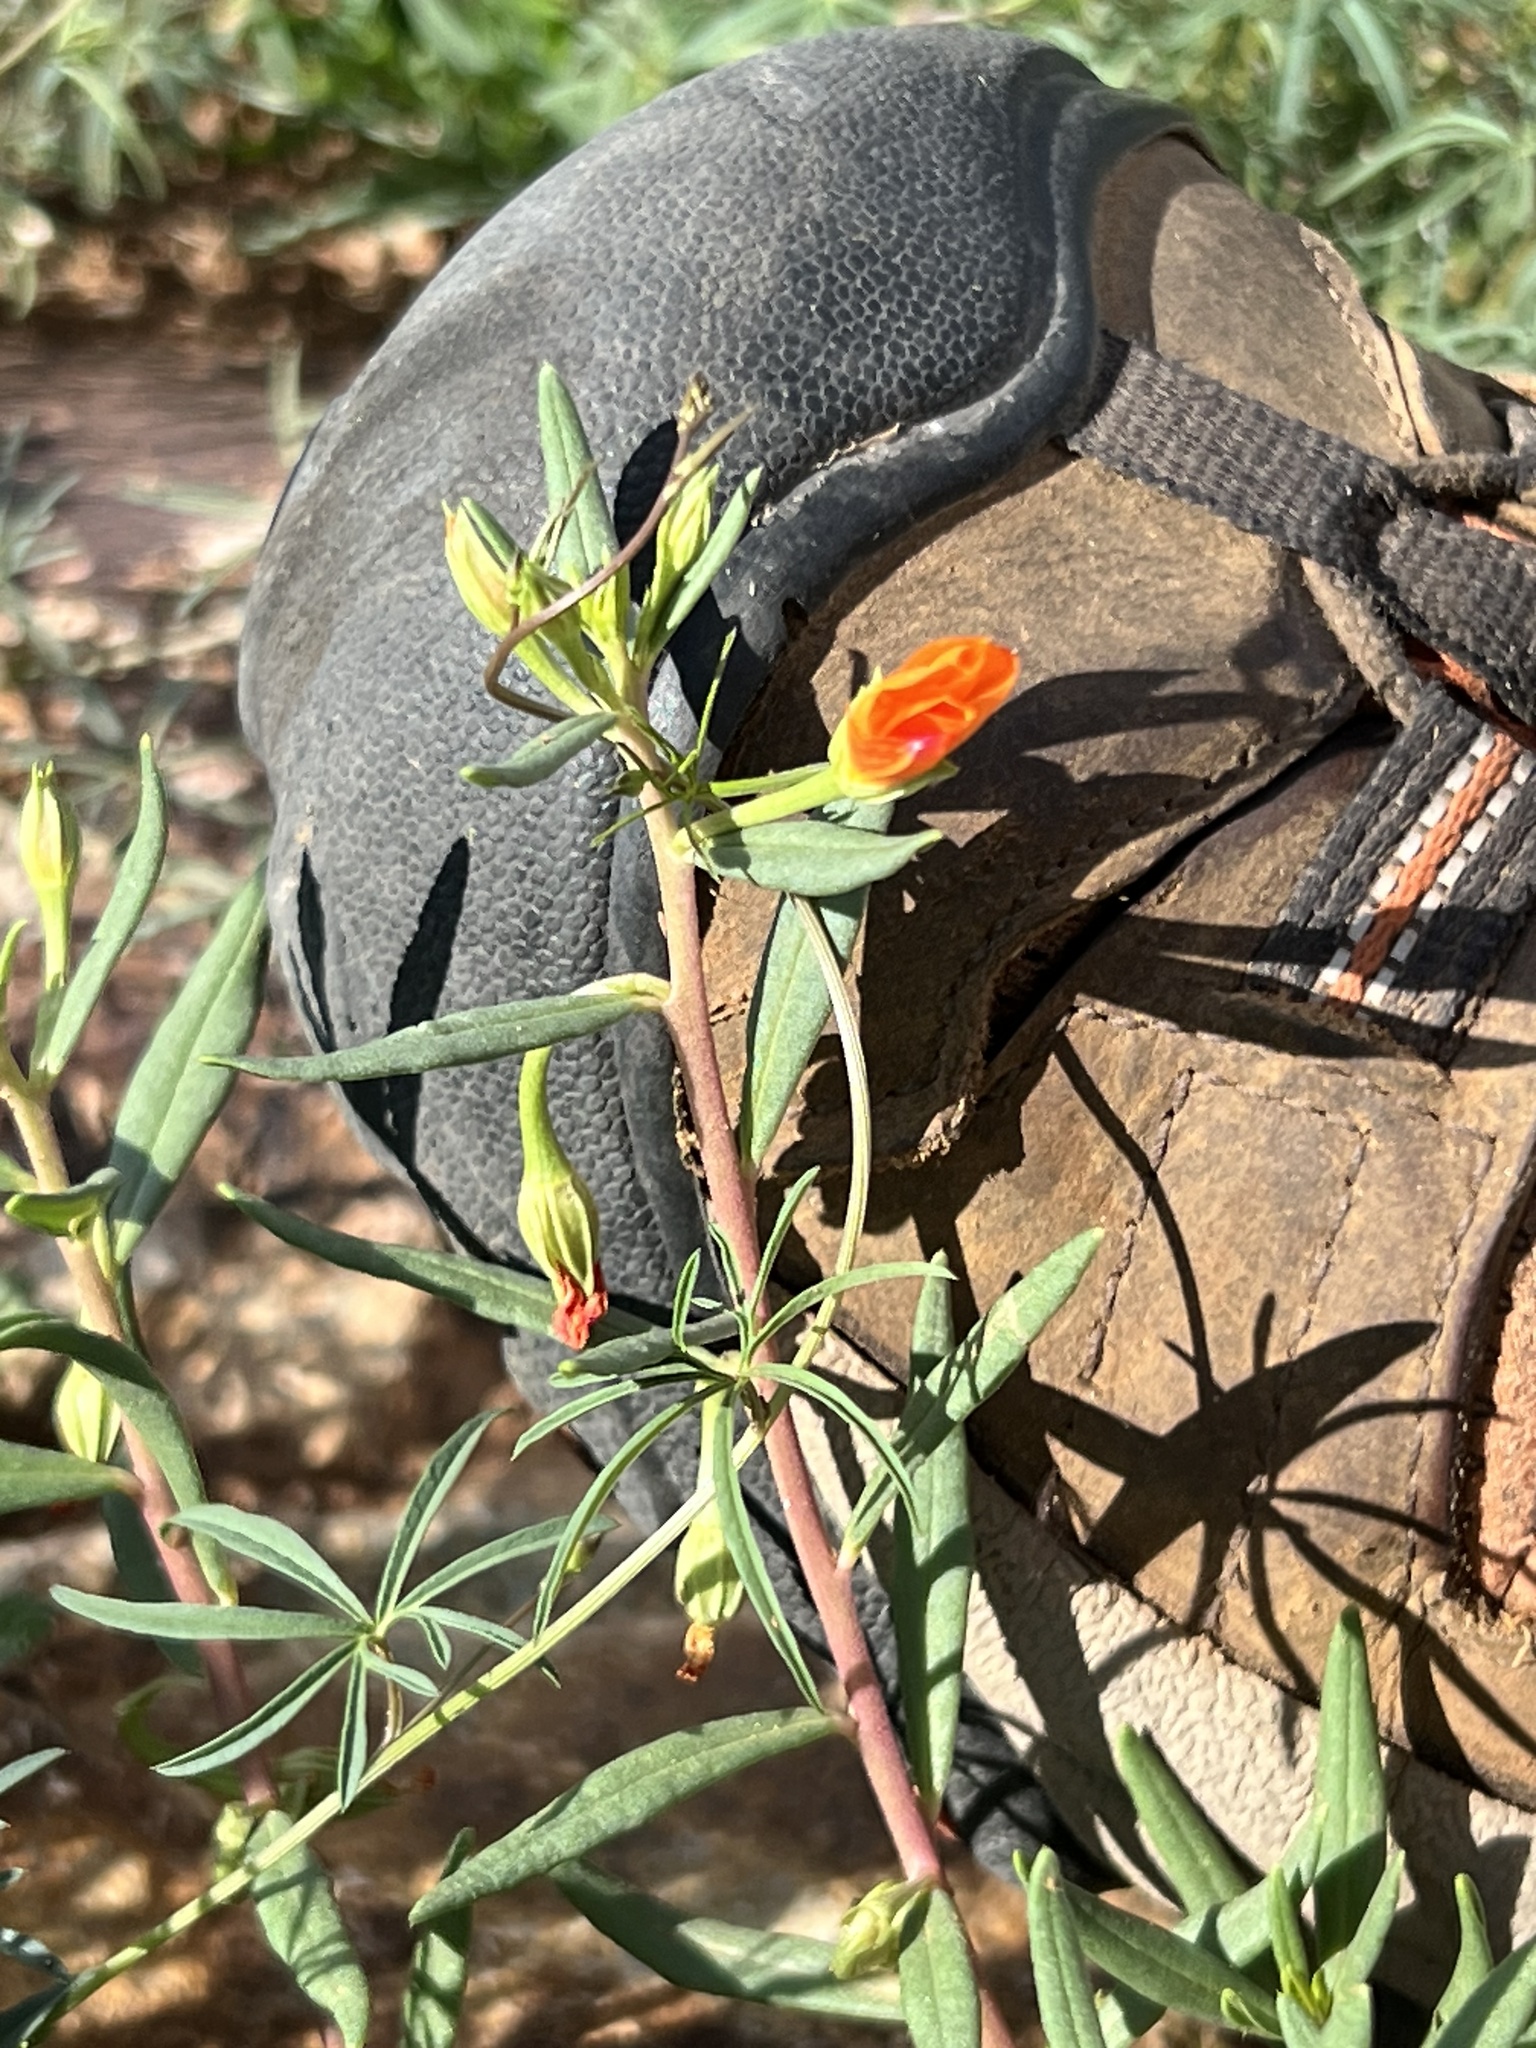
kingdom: Plantae
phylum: Tracheophyta
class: Magnoliopsida
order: Caryophyllales
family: Montiaceae
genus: Phemeranthus
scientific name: Phemeranthus aurantiacus
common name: Orange fameflower
